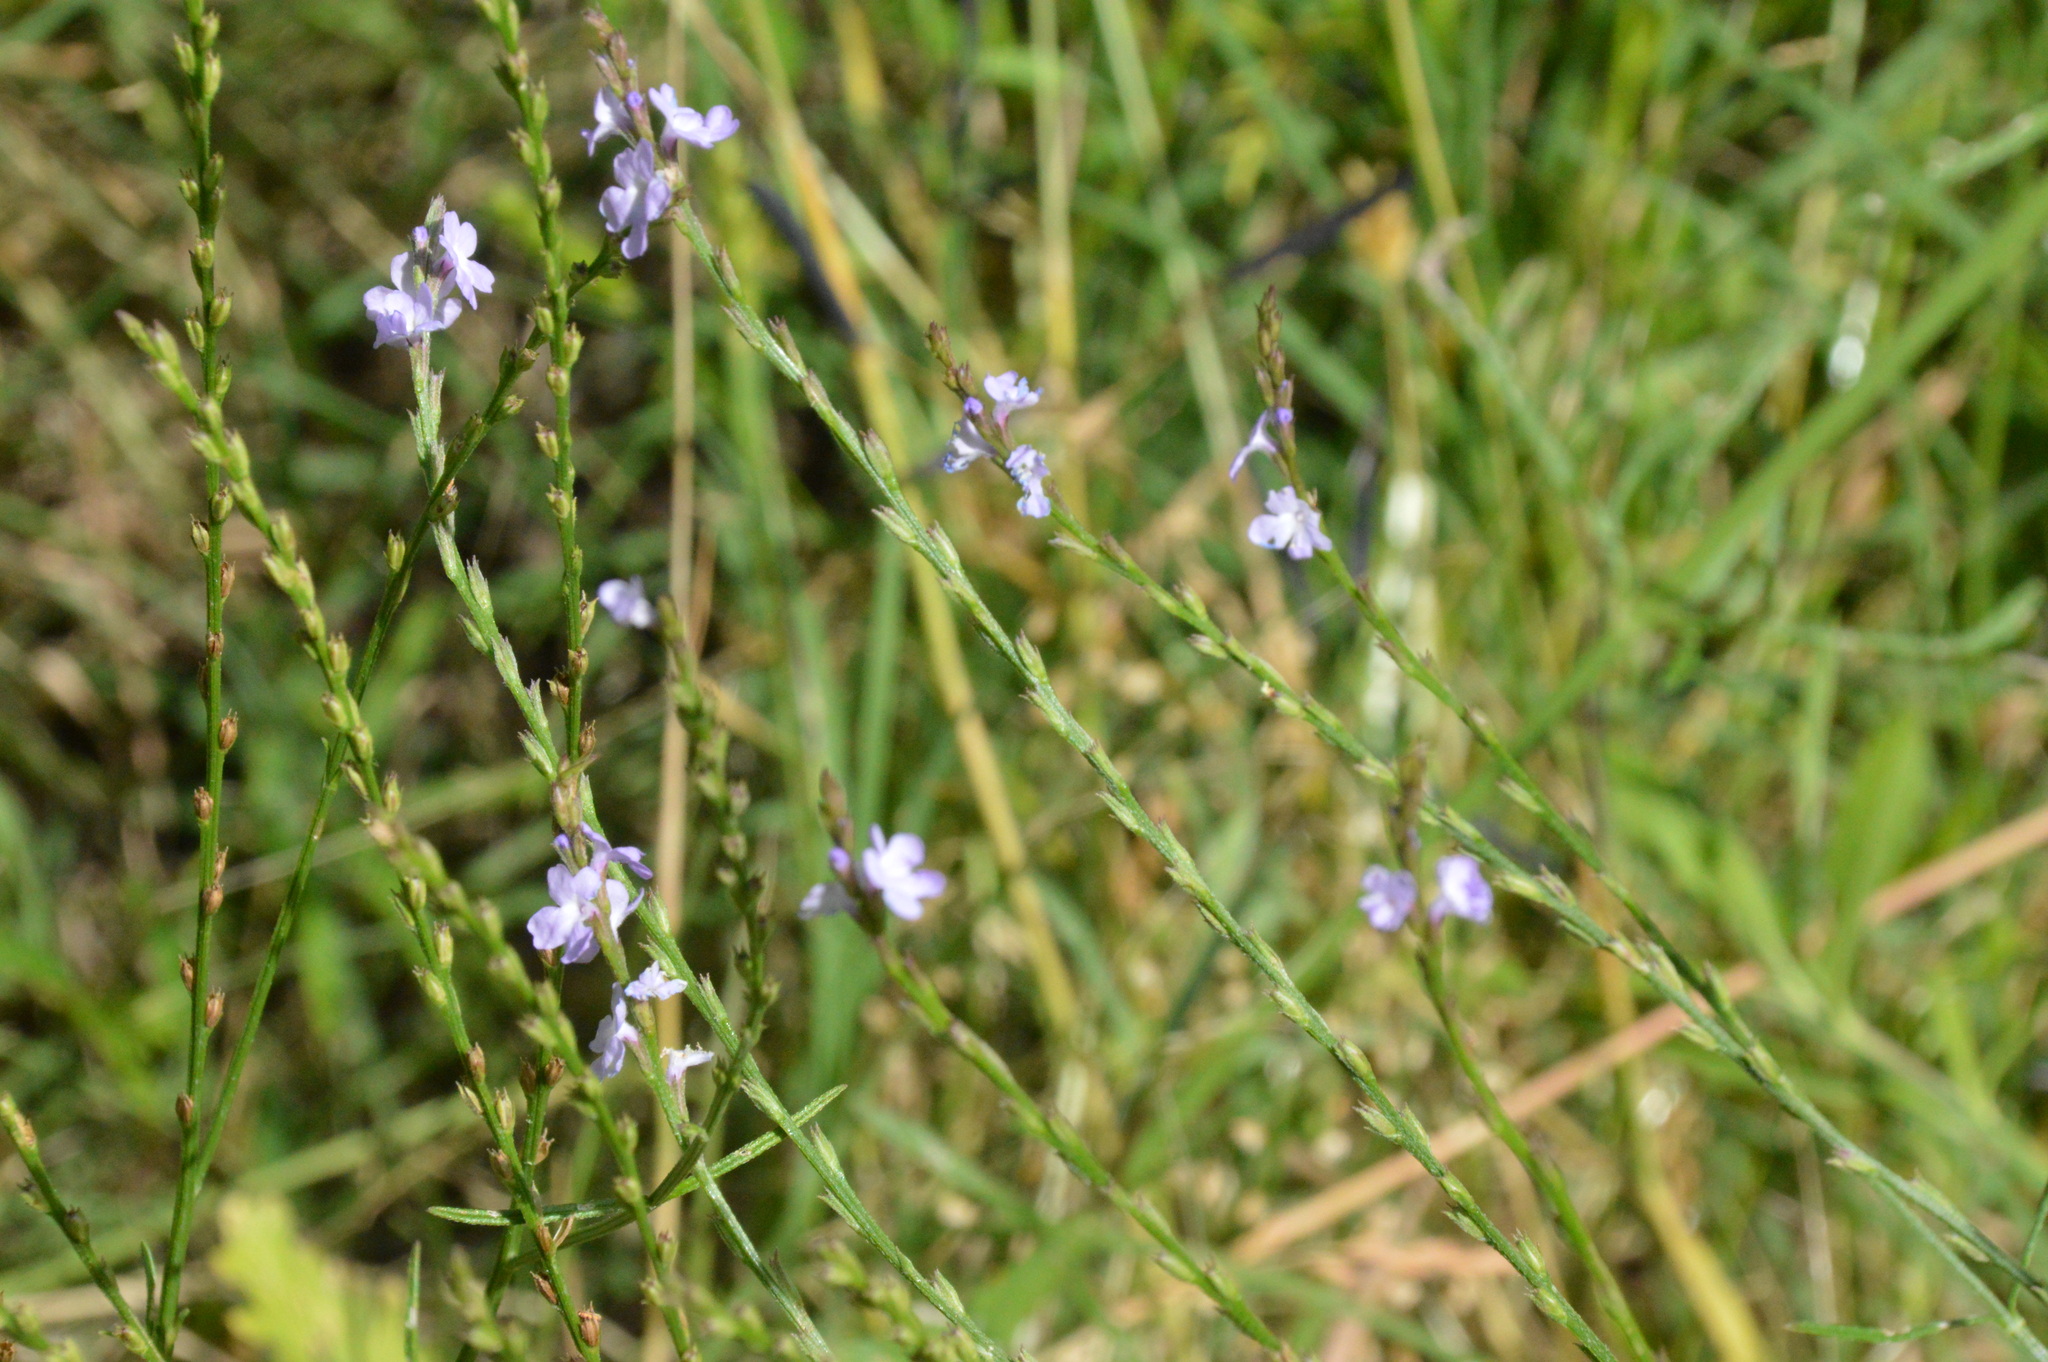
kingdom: Plantae
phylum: Tracheophyta
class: Magnoliopsida
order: Lamiales
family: Verbenaceae
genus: Verbena
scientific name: Verbena halei
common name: Texas vervain
